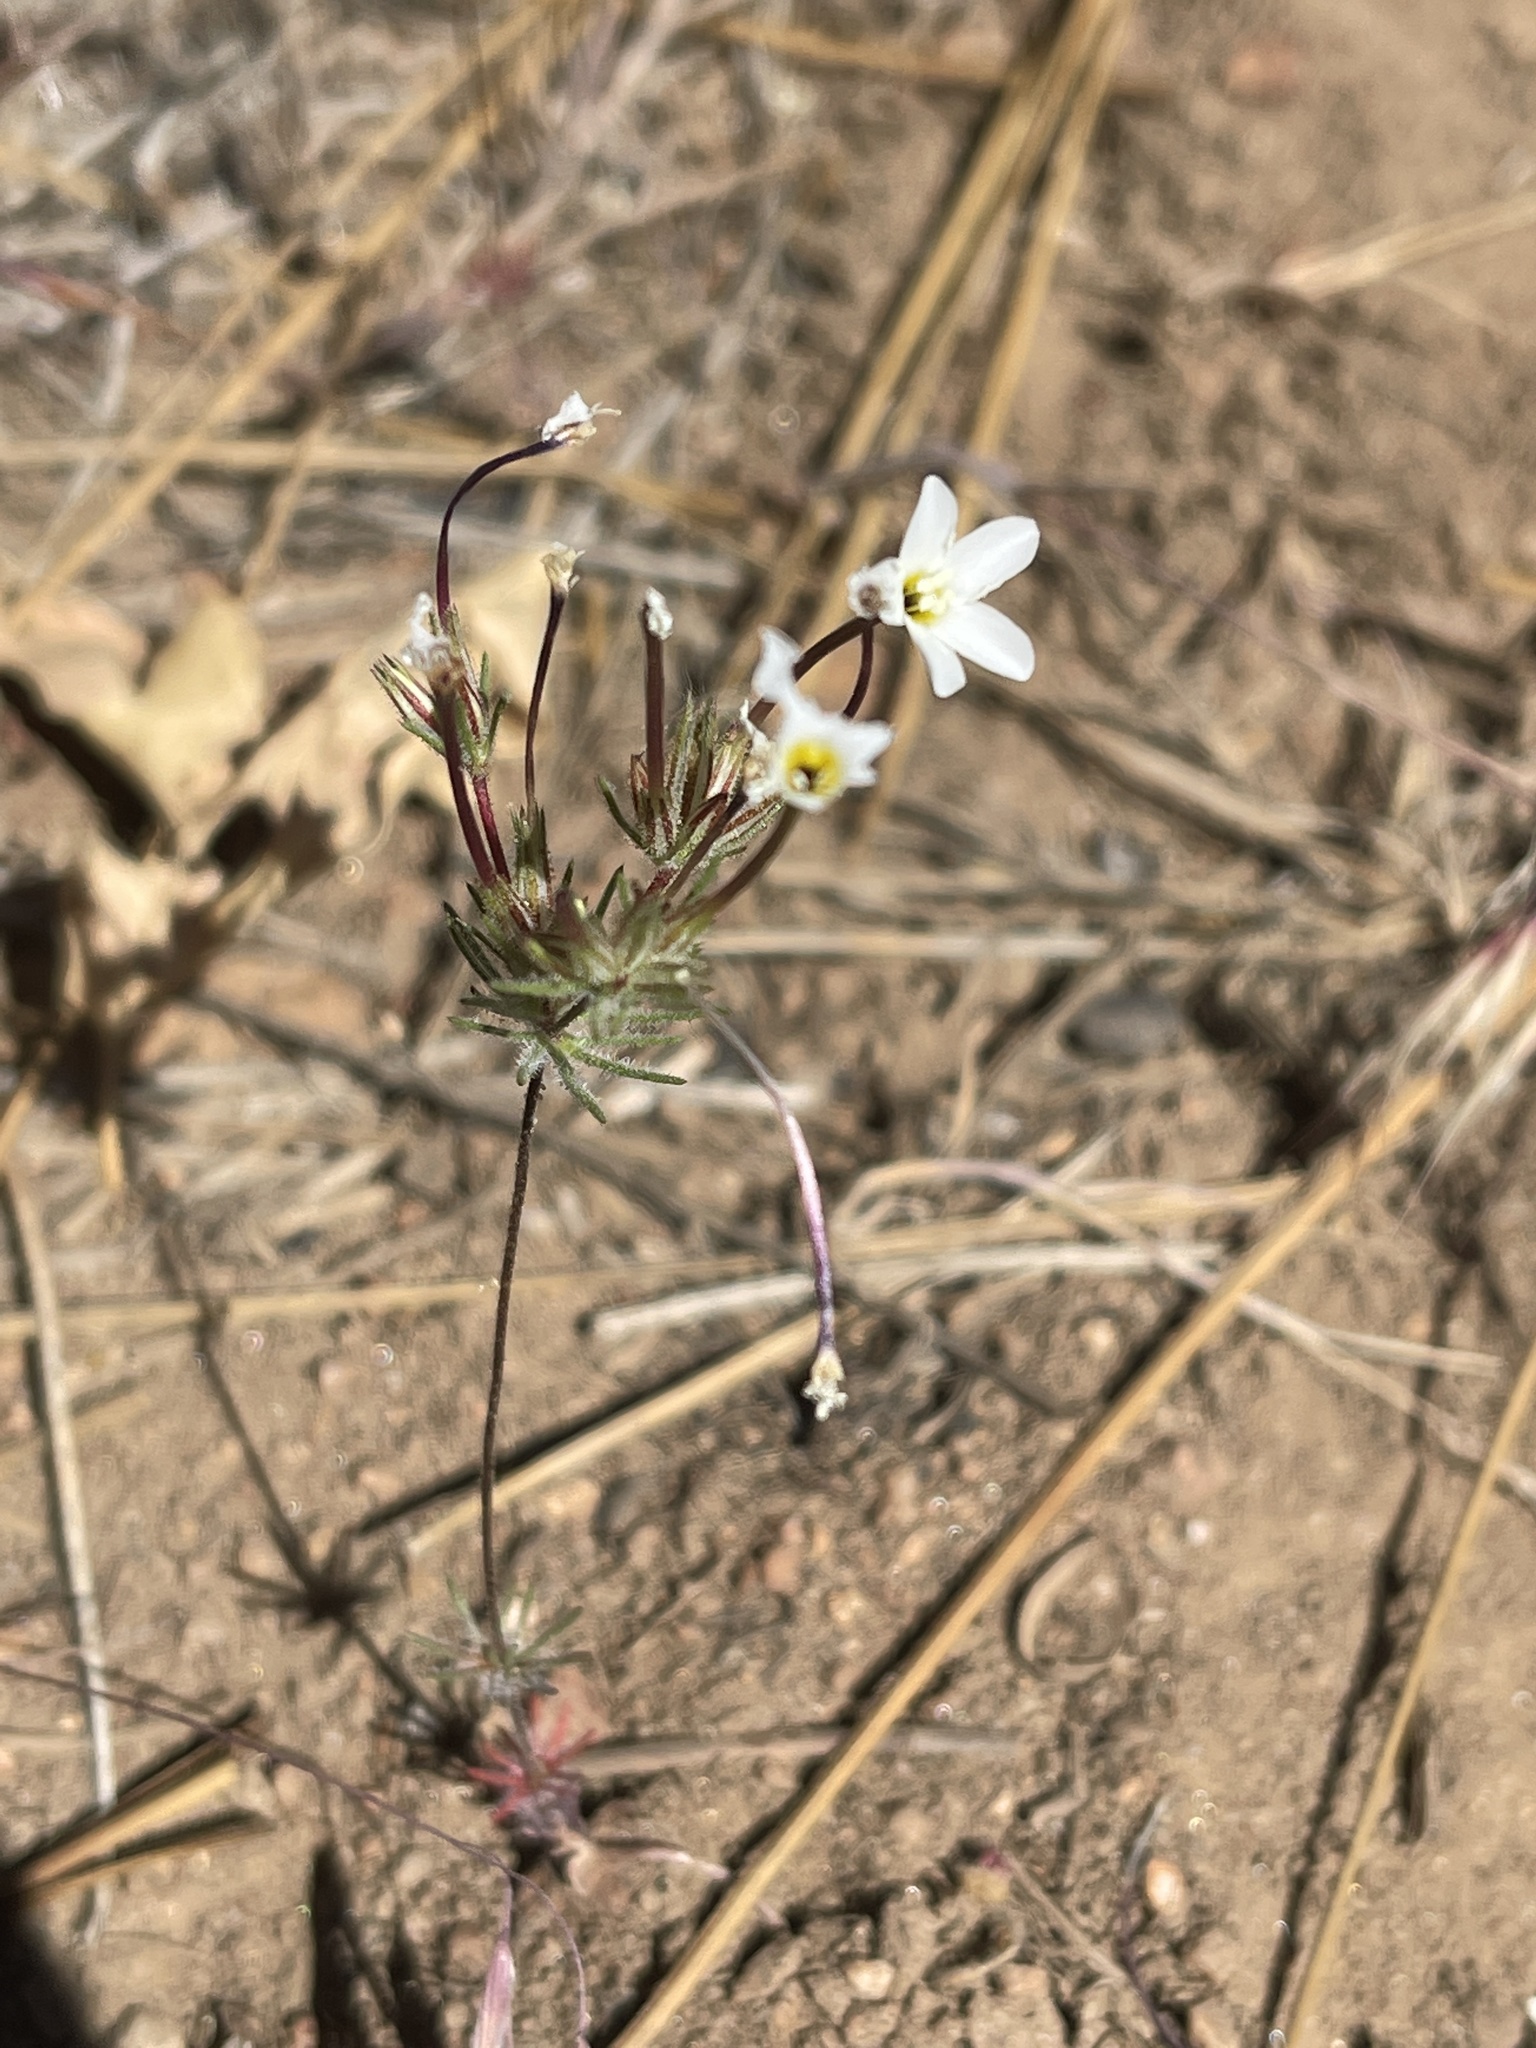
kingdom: Plantae
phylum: Tracheophyta
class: Magnoliopsida
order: Ericales
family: Polemoniaceae
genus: Leptosiphon
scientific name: Leptosiphon breviculus
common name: Mojave linanthus
